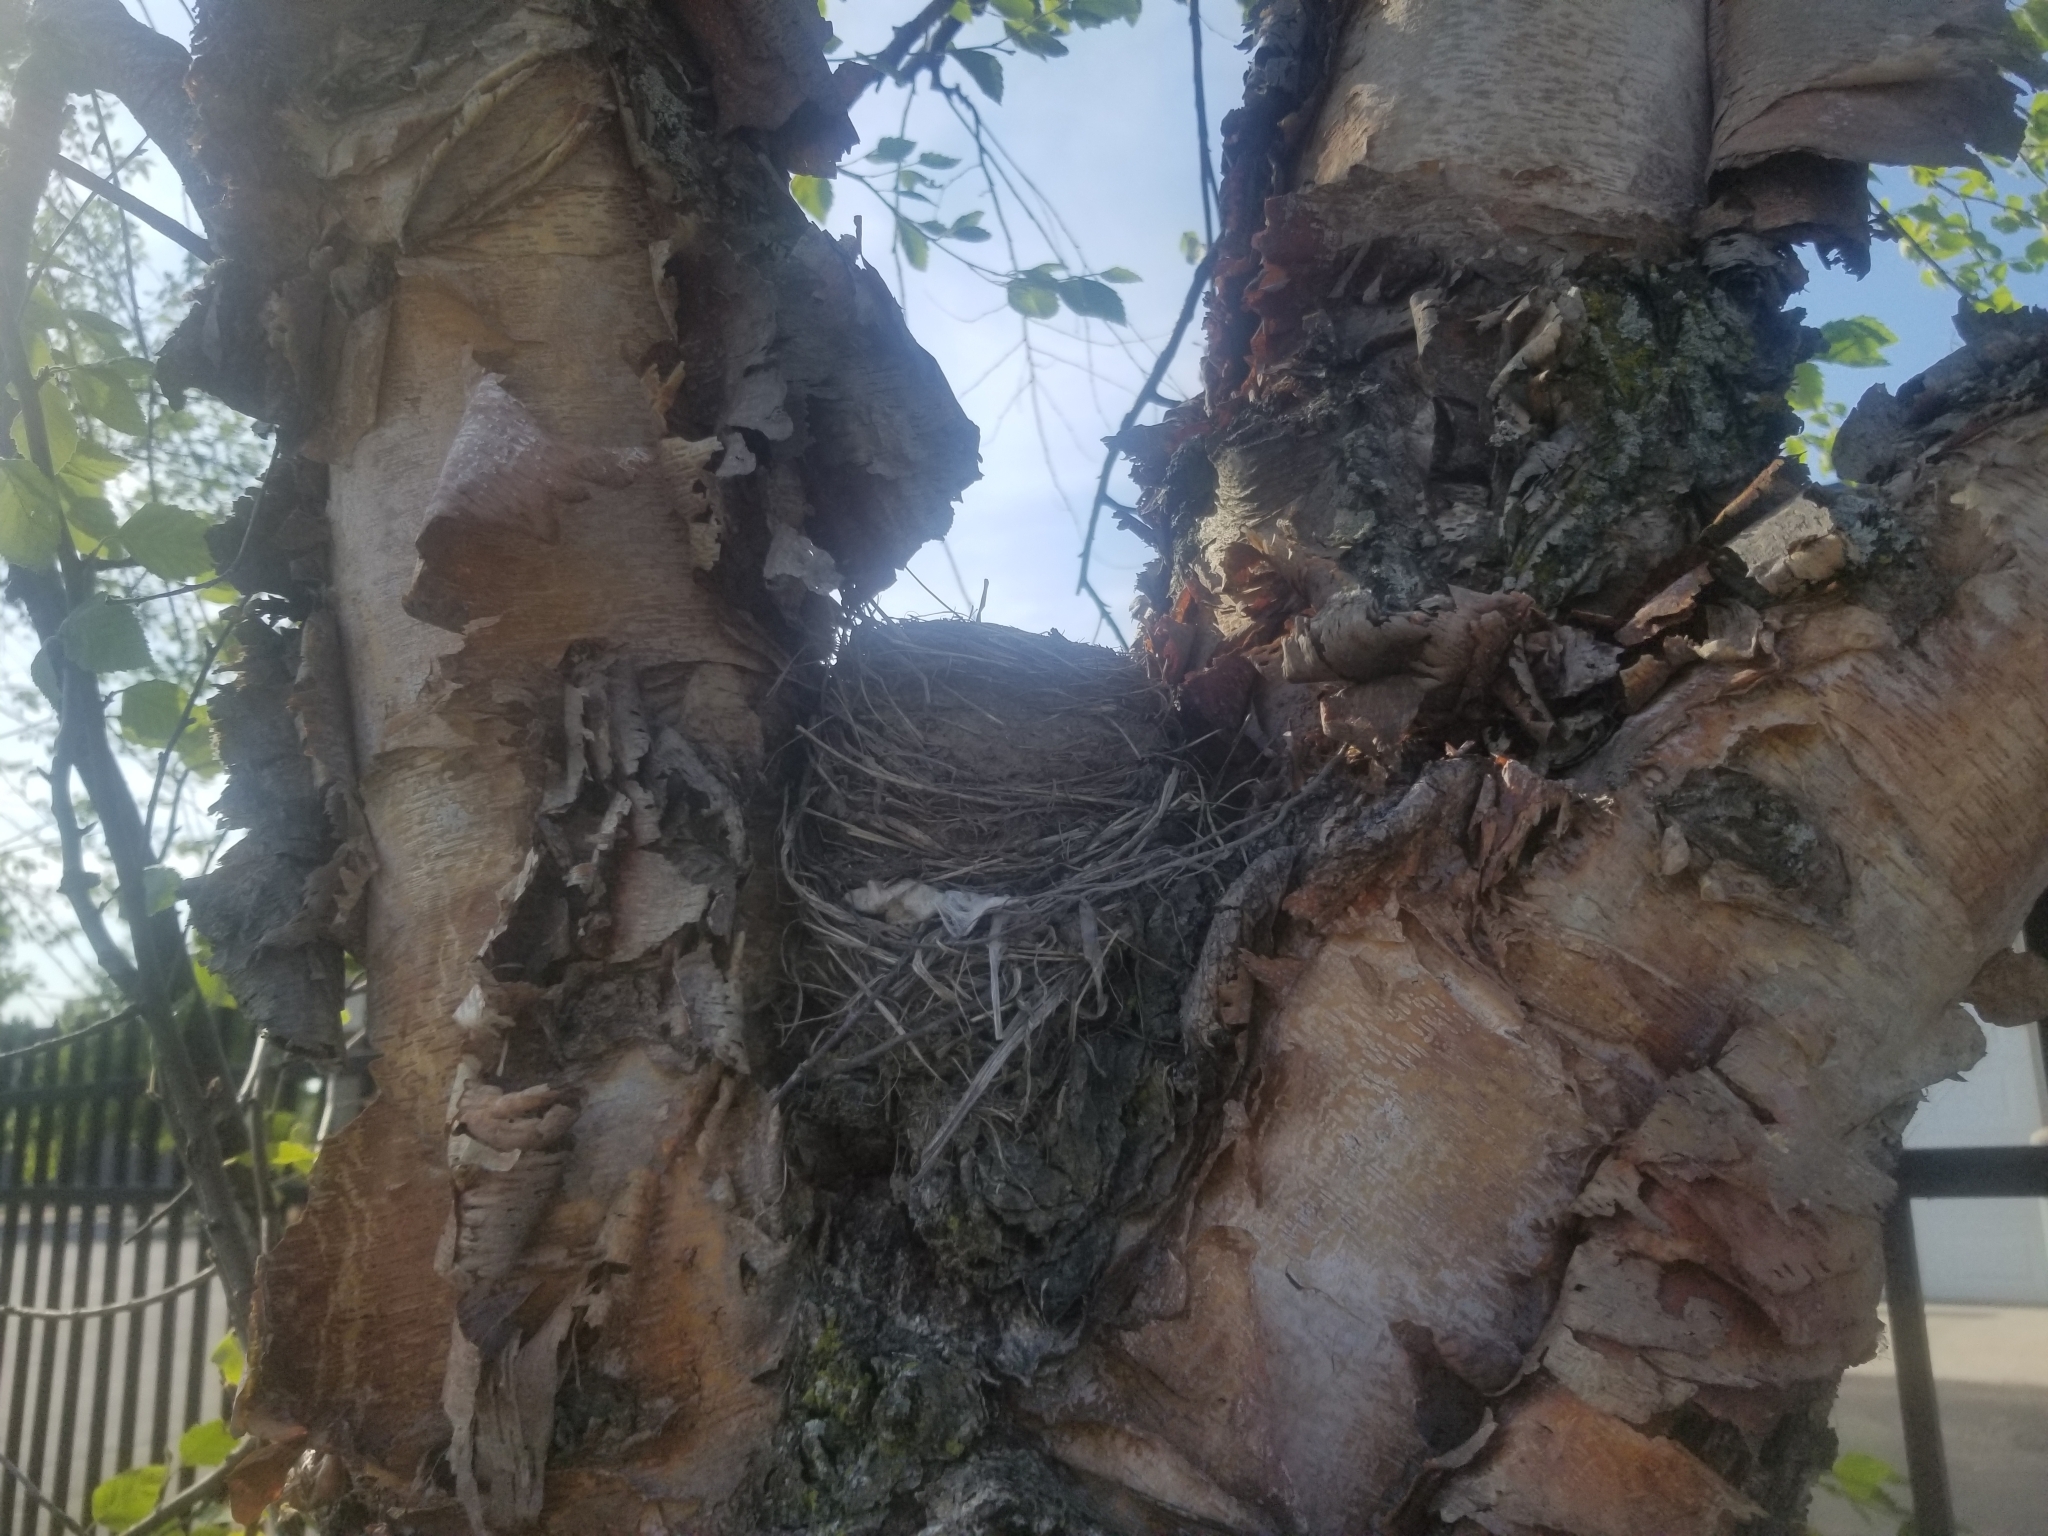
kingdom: Animalia
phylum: Chordata
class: Aves
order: Passeriformes
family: Turdidae
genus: Turdus
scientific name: Turdus migratorius
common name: American robin
